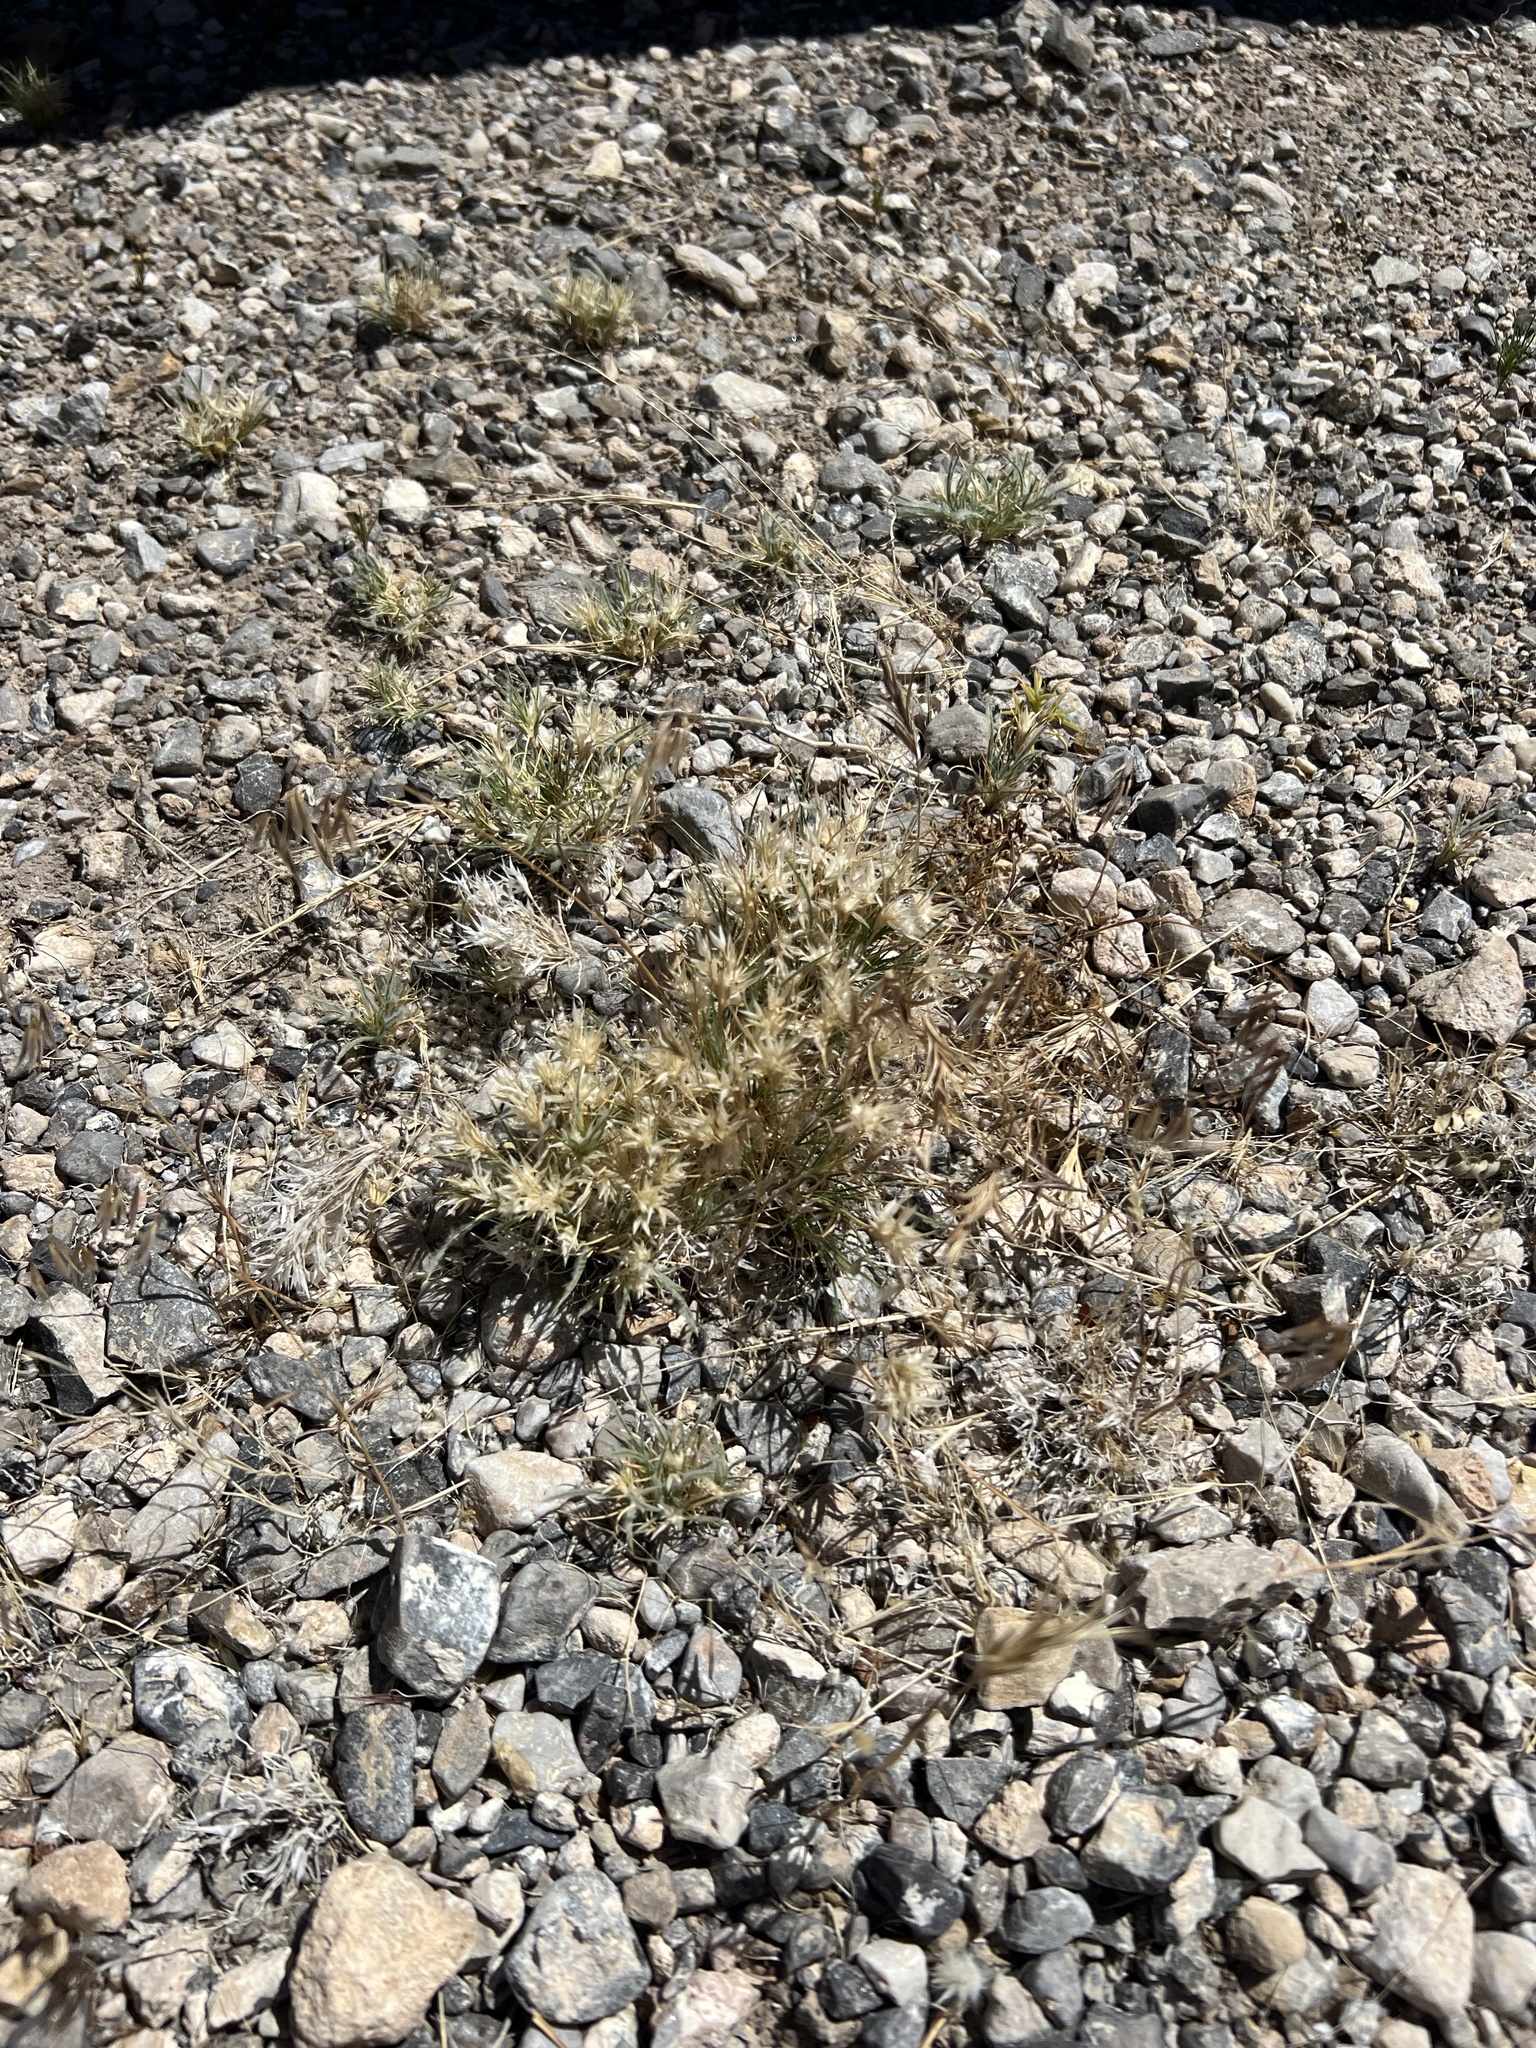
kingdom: Plantae
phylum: Tracheophyta
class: Liliopsida
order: Poales
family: Poaceae
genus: Dasyochloa
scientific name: Dasyochloa pulchella
